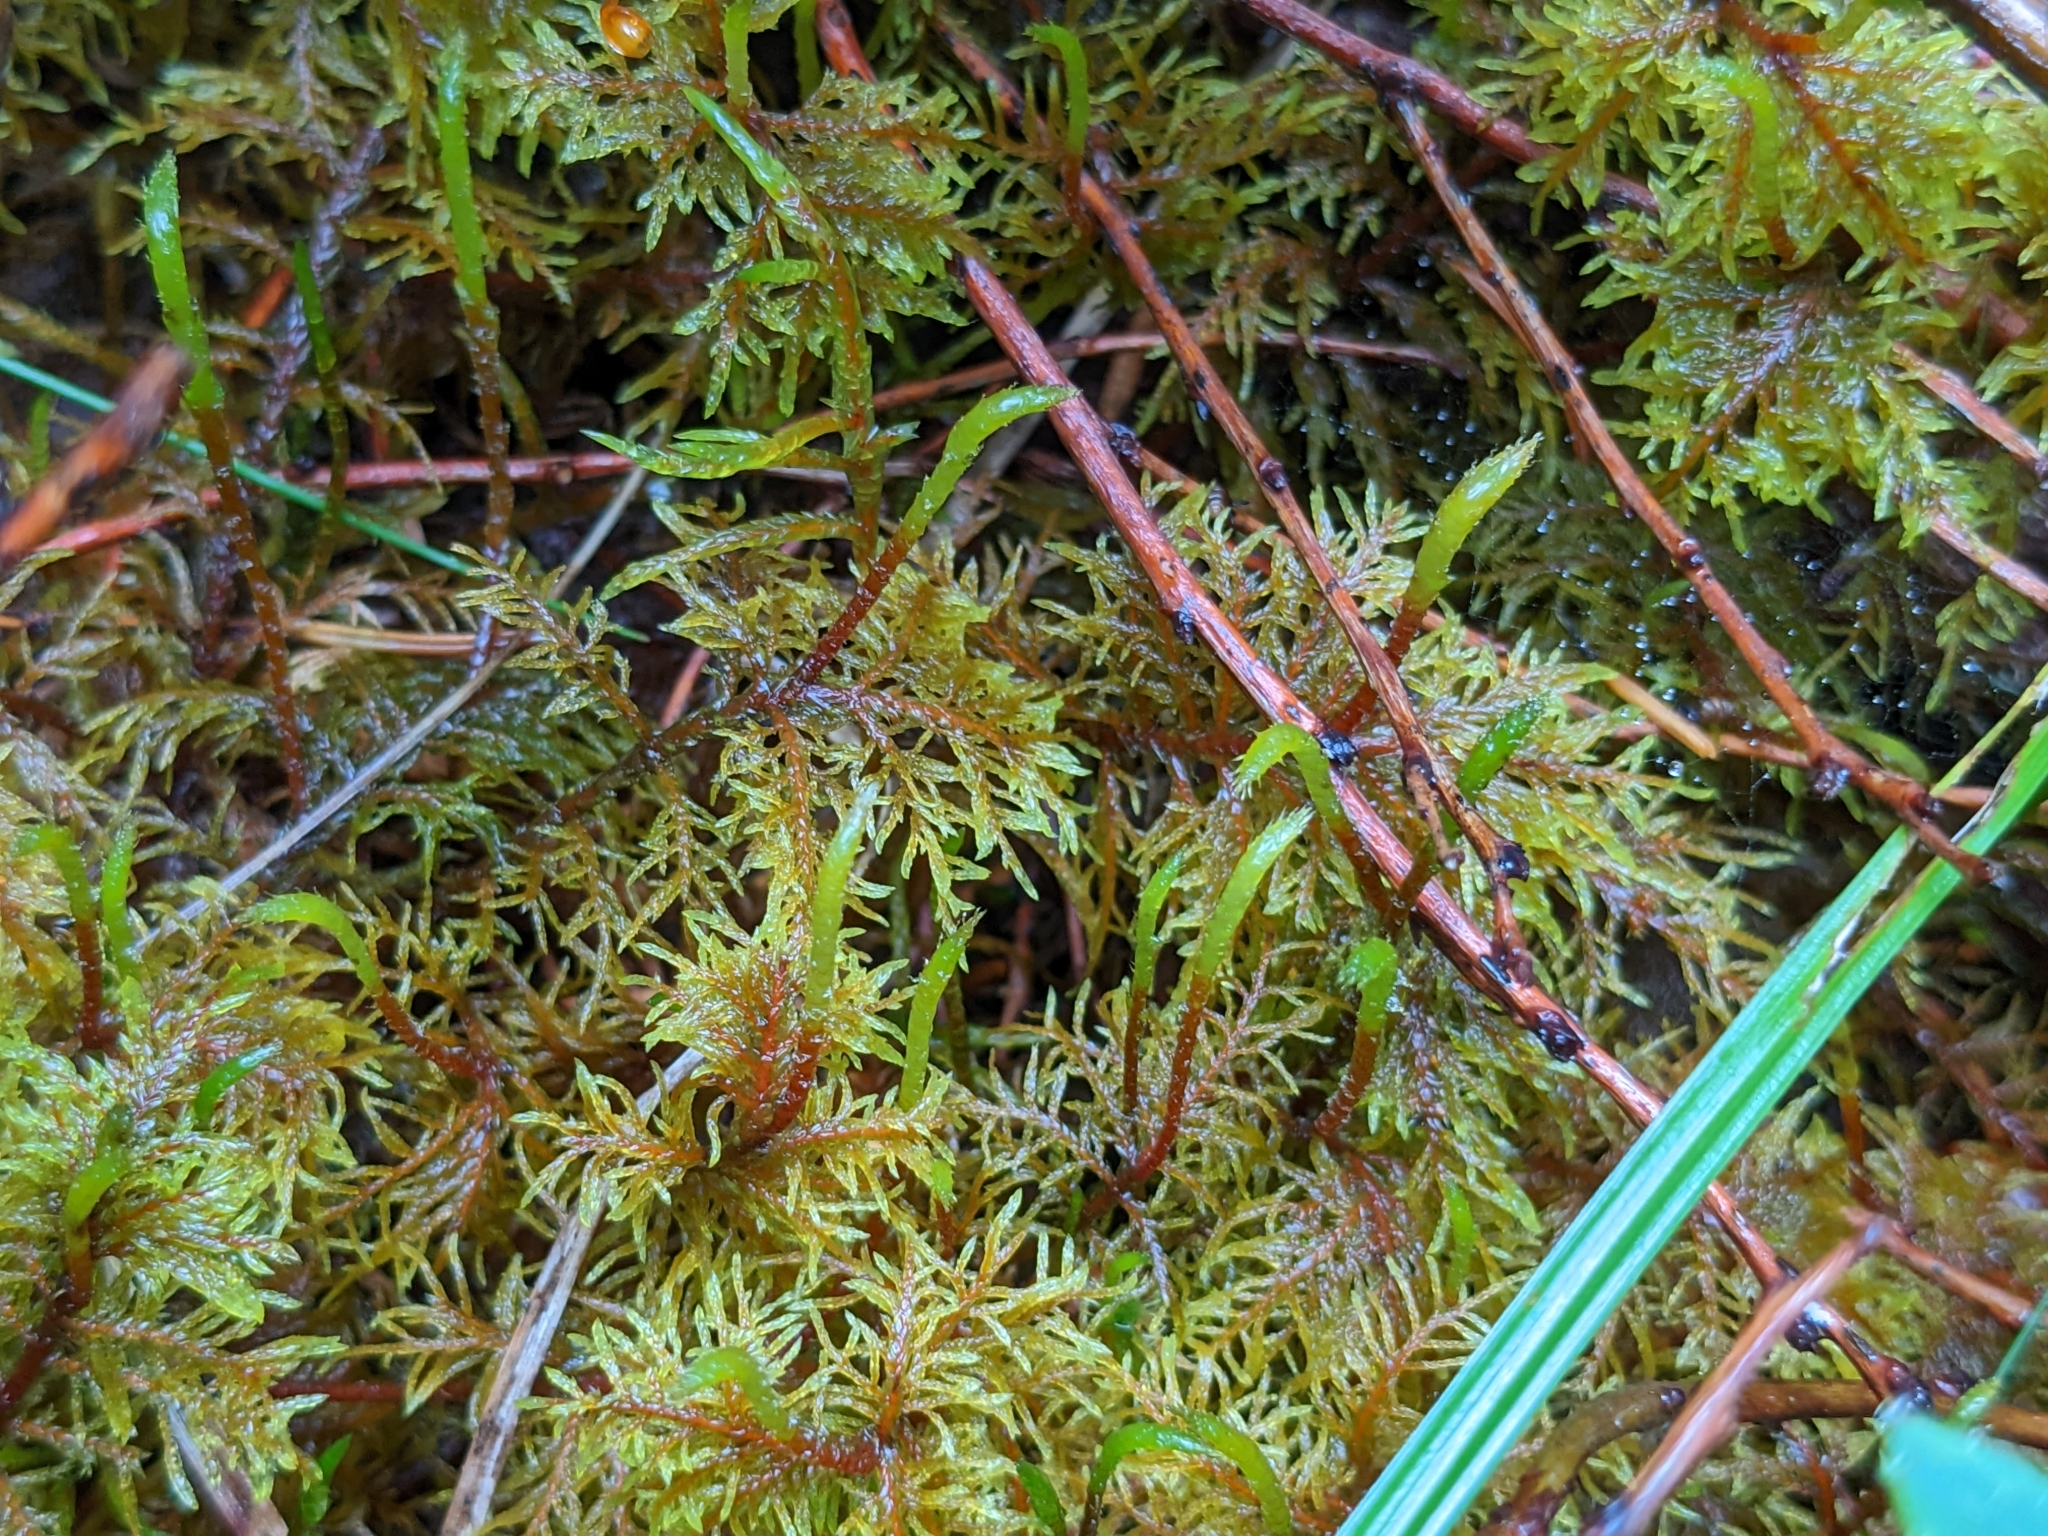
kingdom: Plantae
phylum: Bryophyta
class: Bryopsida
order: Hypnales
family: Hylocomiaceae
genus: Hylocomium
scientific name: Hylocomium splendens
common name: Stairstep moss
